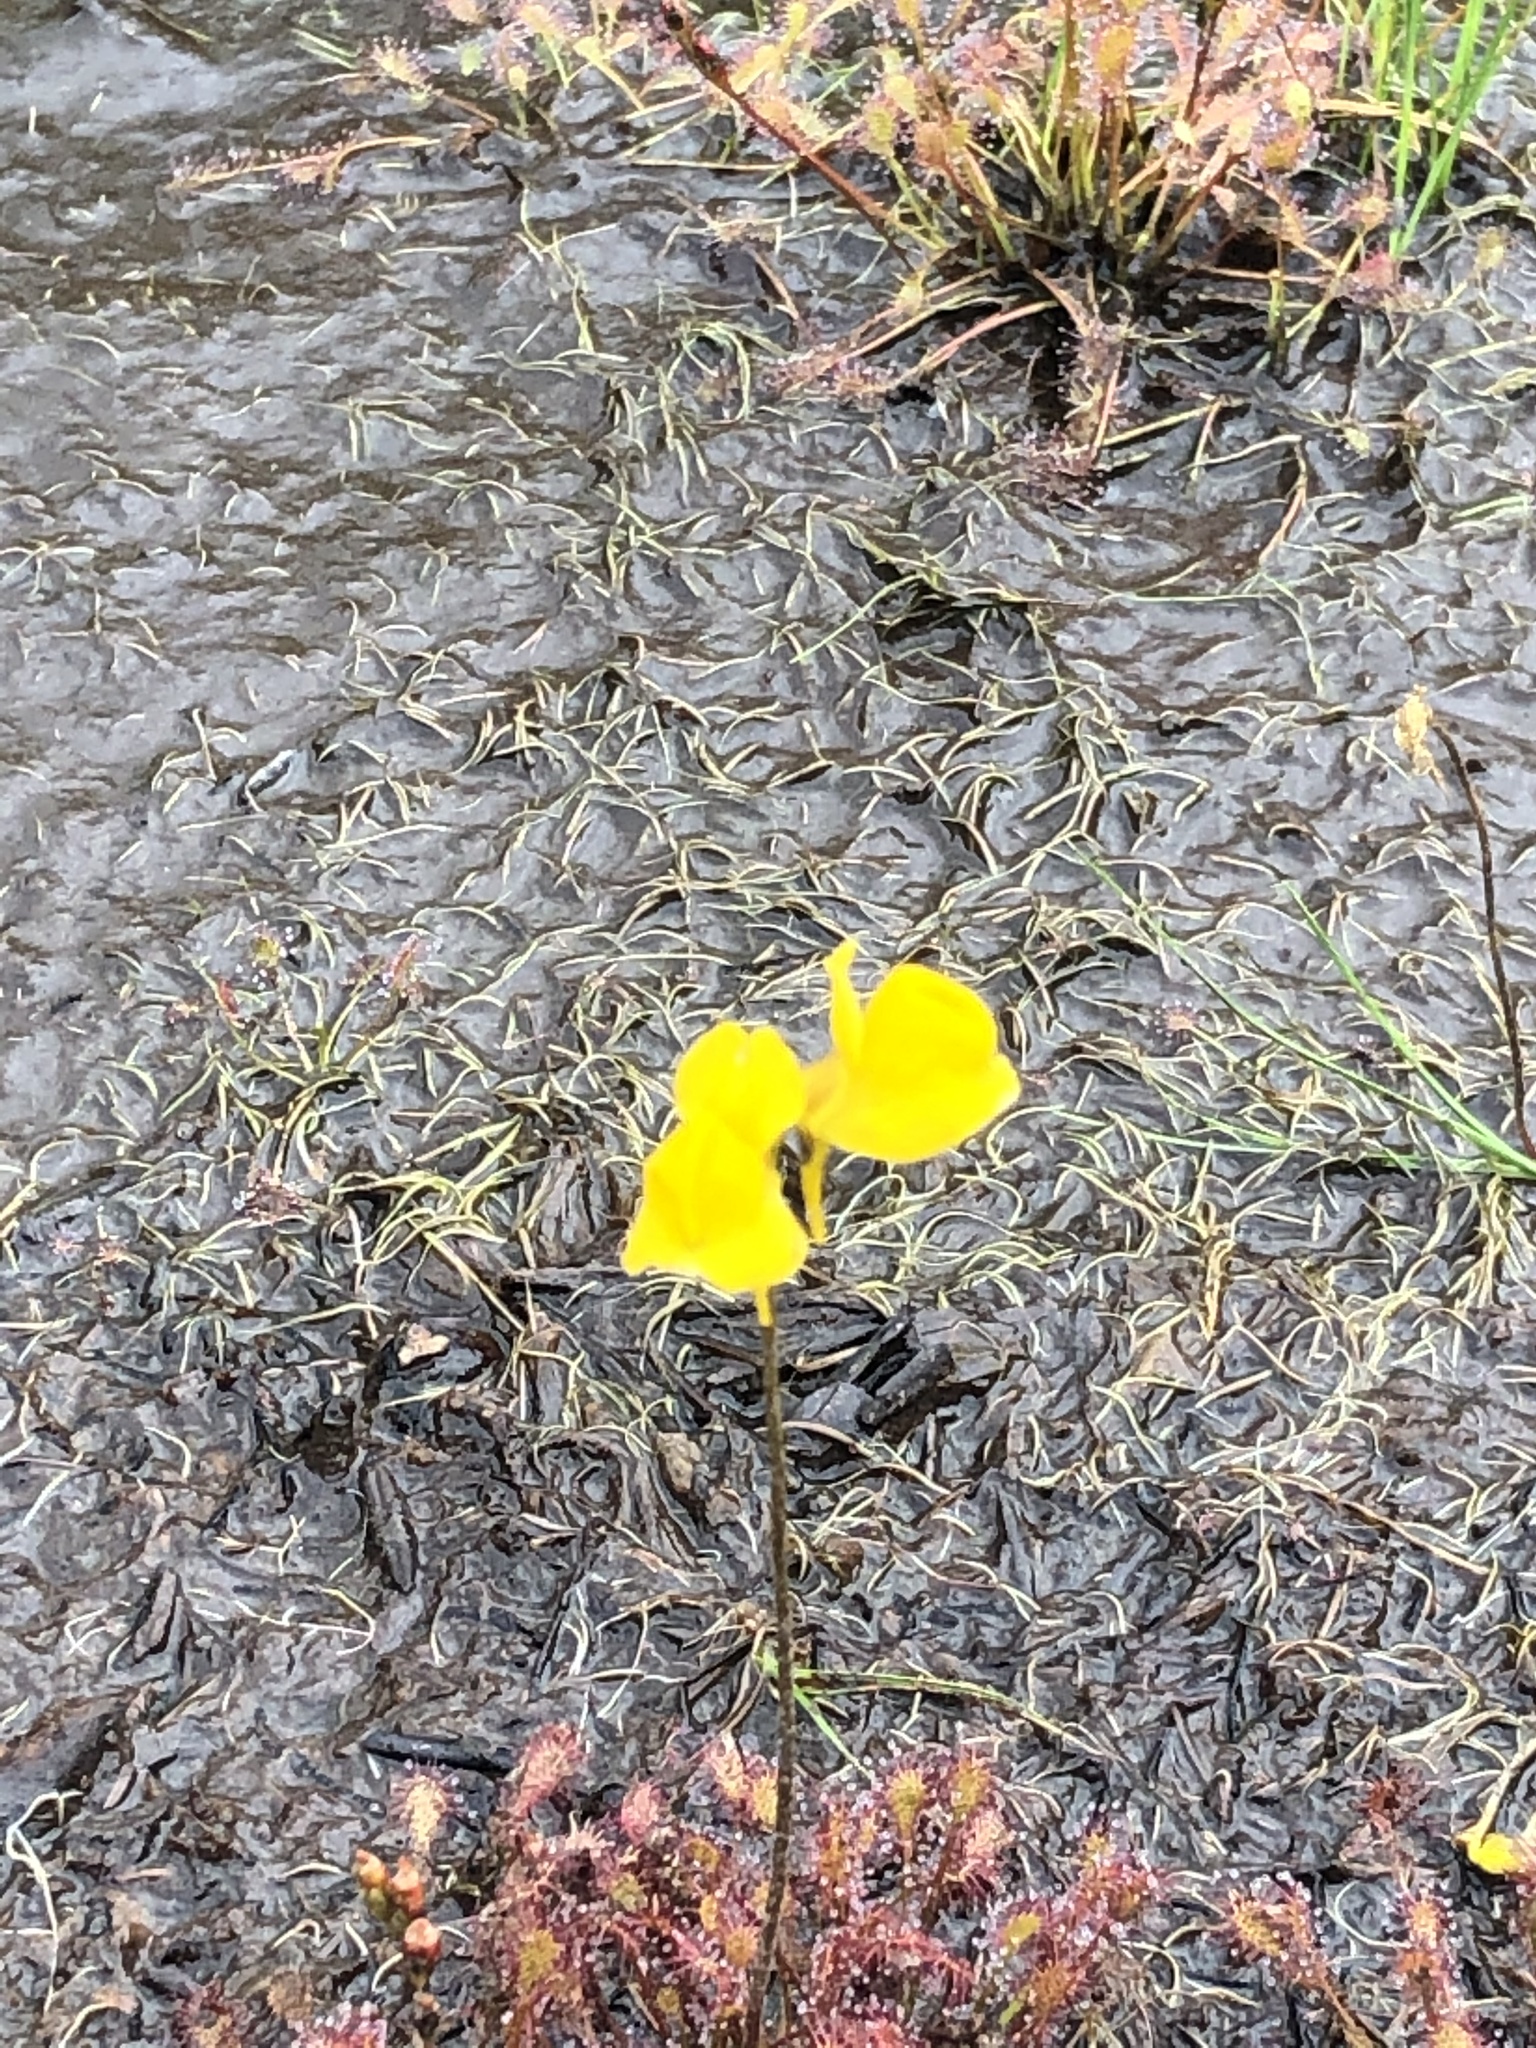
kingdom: Plantae
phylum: Tracheophyta
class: Magnoliopsida
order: Lamiales
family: Lentibulariaceae
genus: Utricularia
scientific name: Utricularia cornuta
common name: Horned bladderwort
